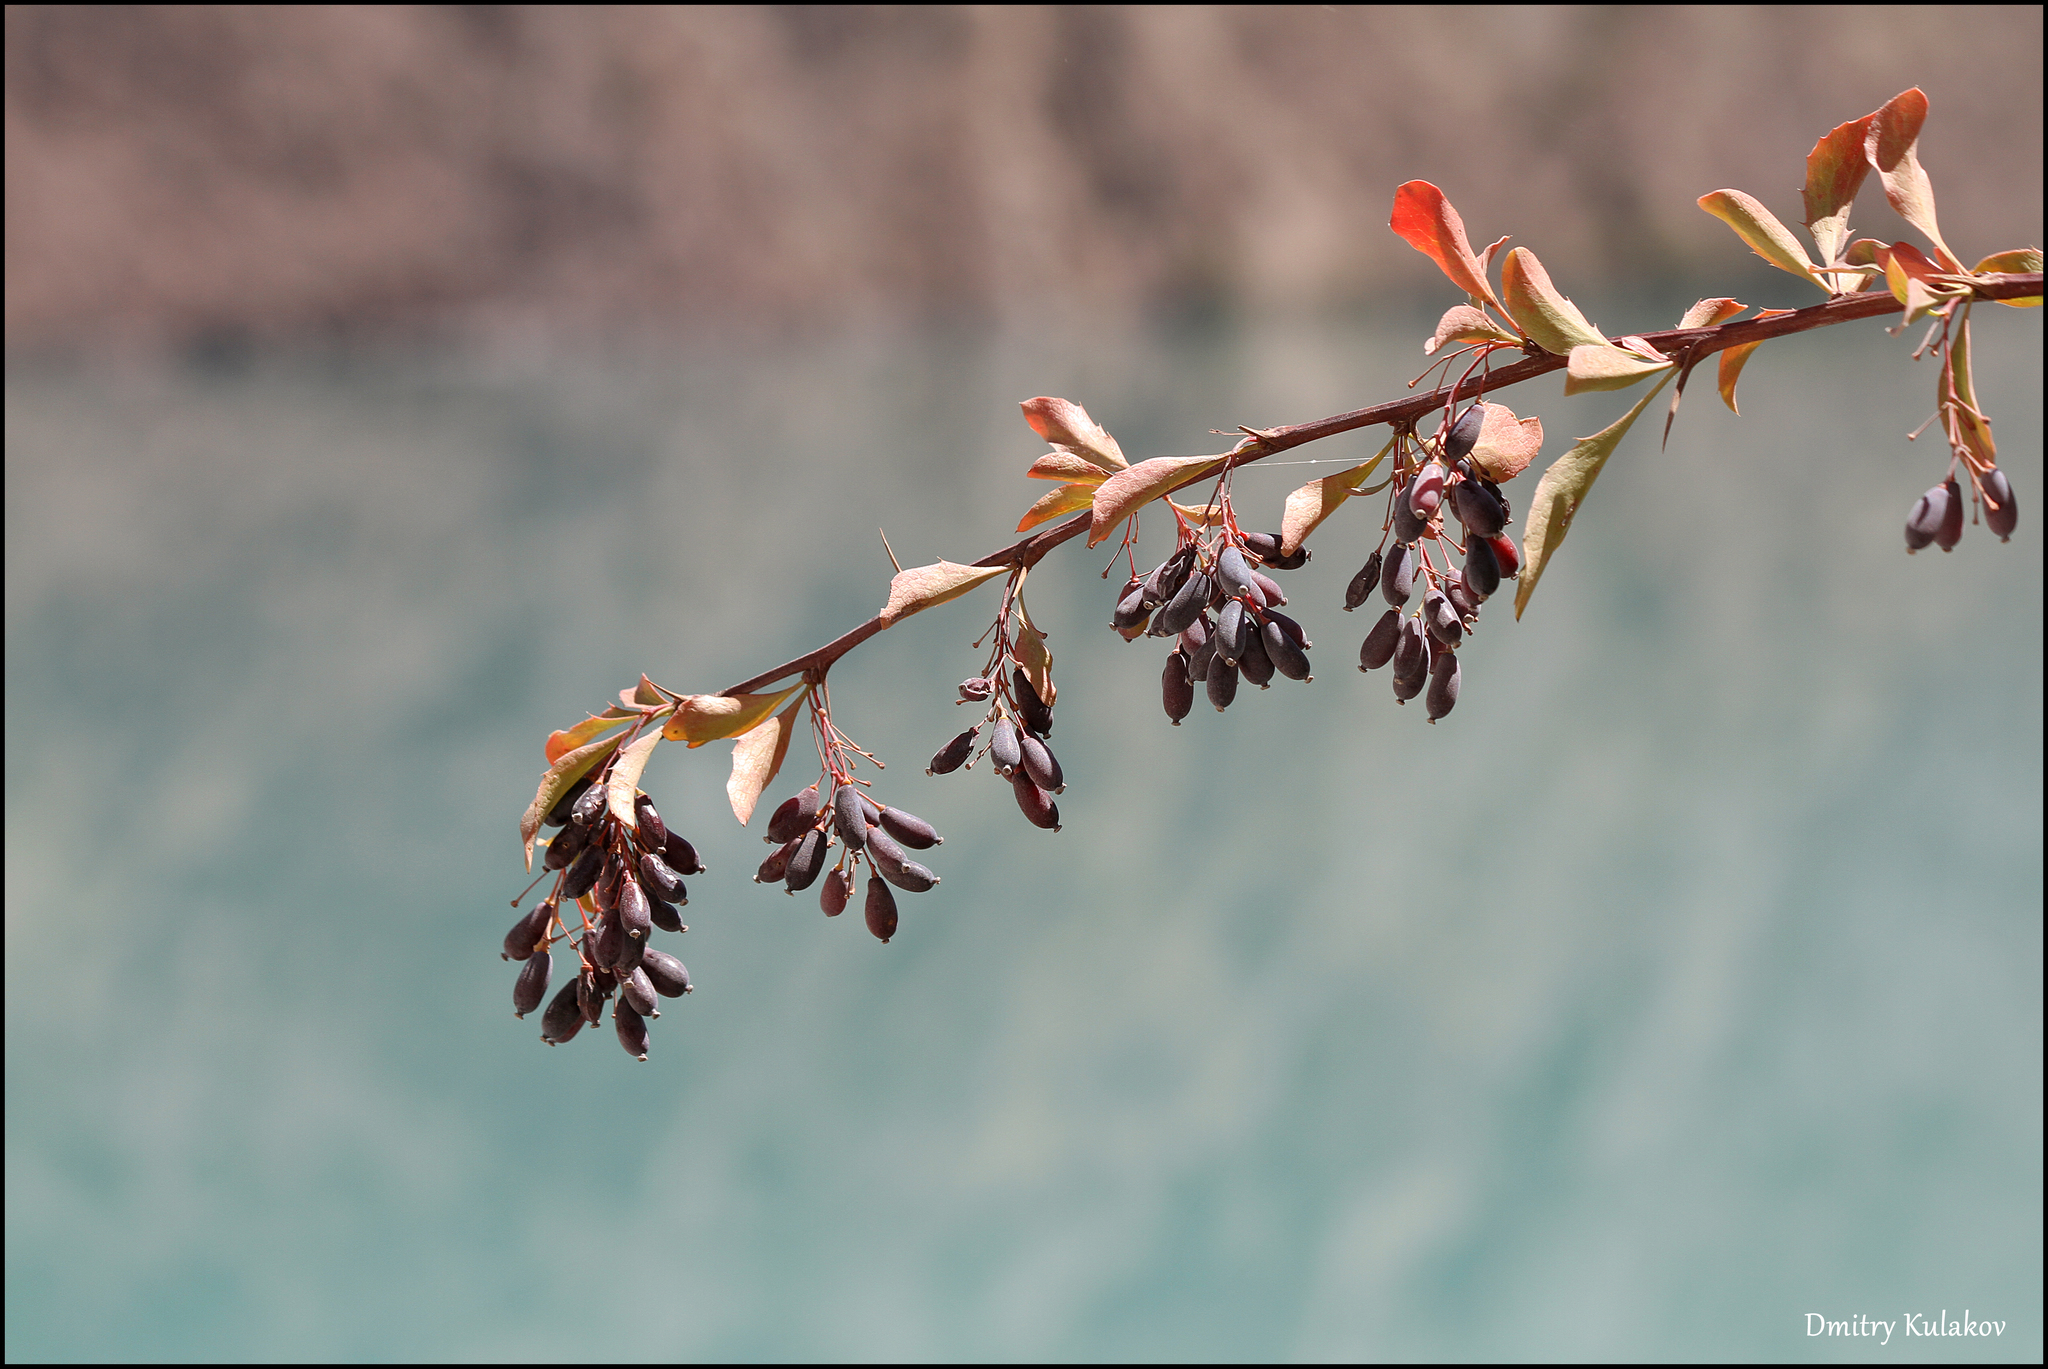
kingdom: Plantae
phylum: Tracheophyta
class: Magnoliopsida
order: Ranunculales
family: Berberidaceae
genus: Berberis
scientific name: Berberis integerrima
